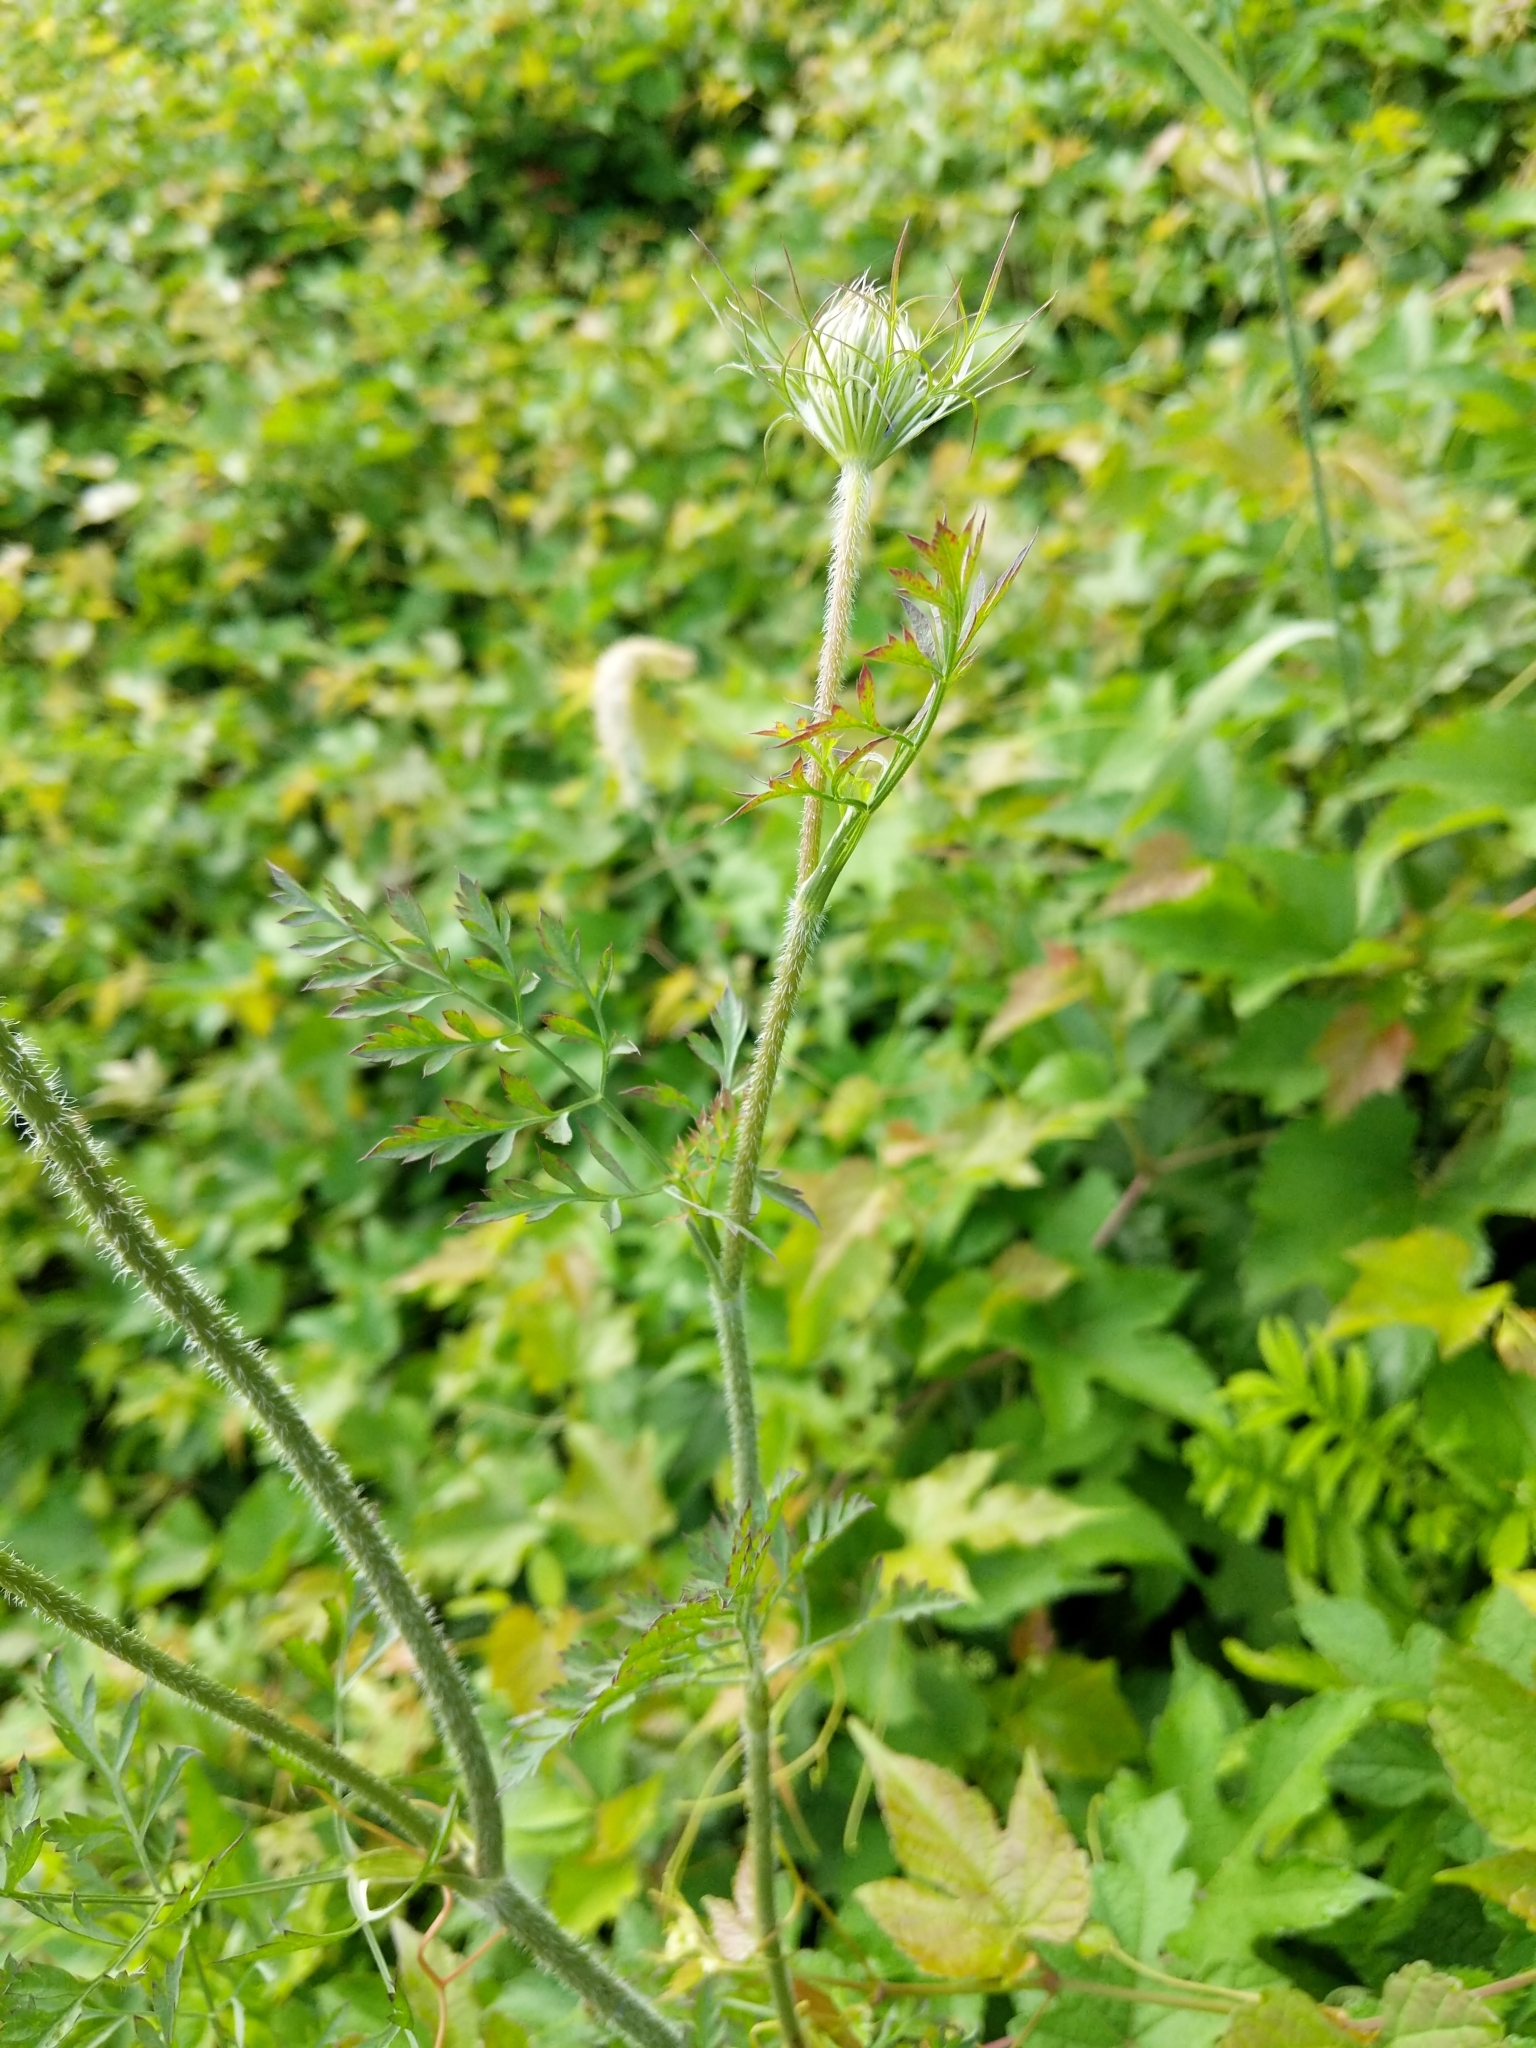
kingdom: Plantae
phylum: Tracheophyta
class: Magnoliopsida
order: Apiales
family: Apiaceae
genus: Daucus
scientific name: Daucus carota
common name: Wild carrot
